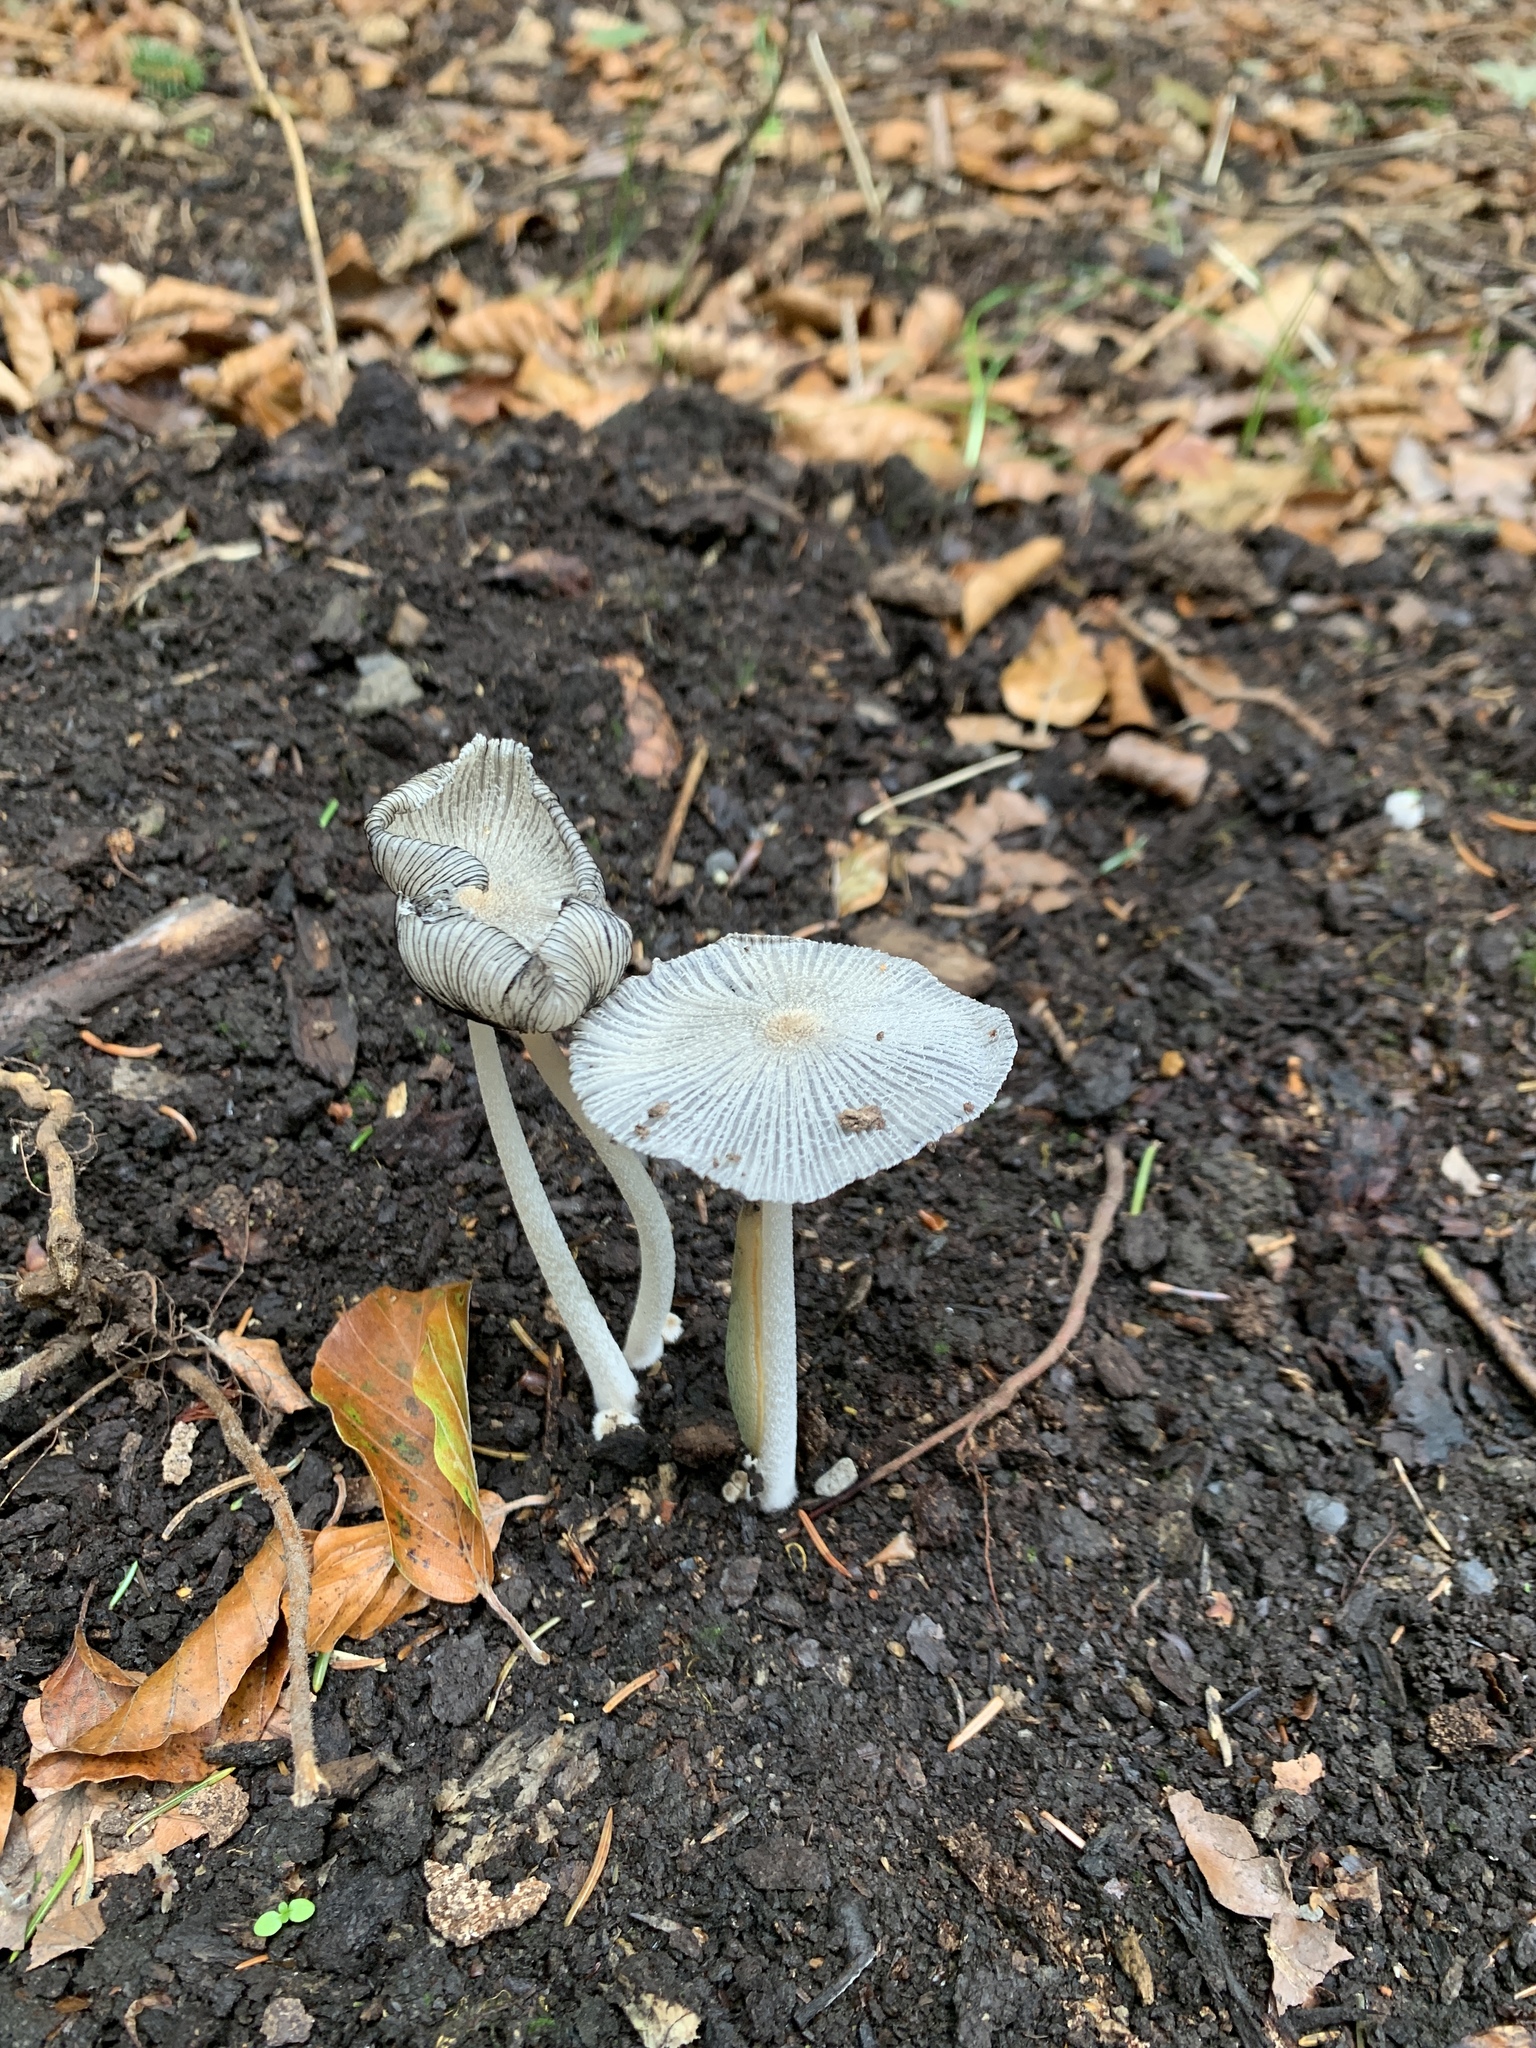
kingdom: Fungi
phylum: Basidiomycota
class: Agaricomycetes
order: Agaricales
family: Psathyrellaceae
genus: Coprinopsis
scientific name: Coprinopsis lagopus
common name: Hare'sfoot inkcap
